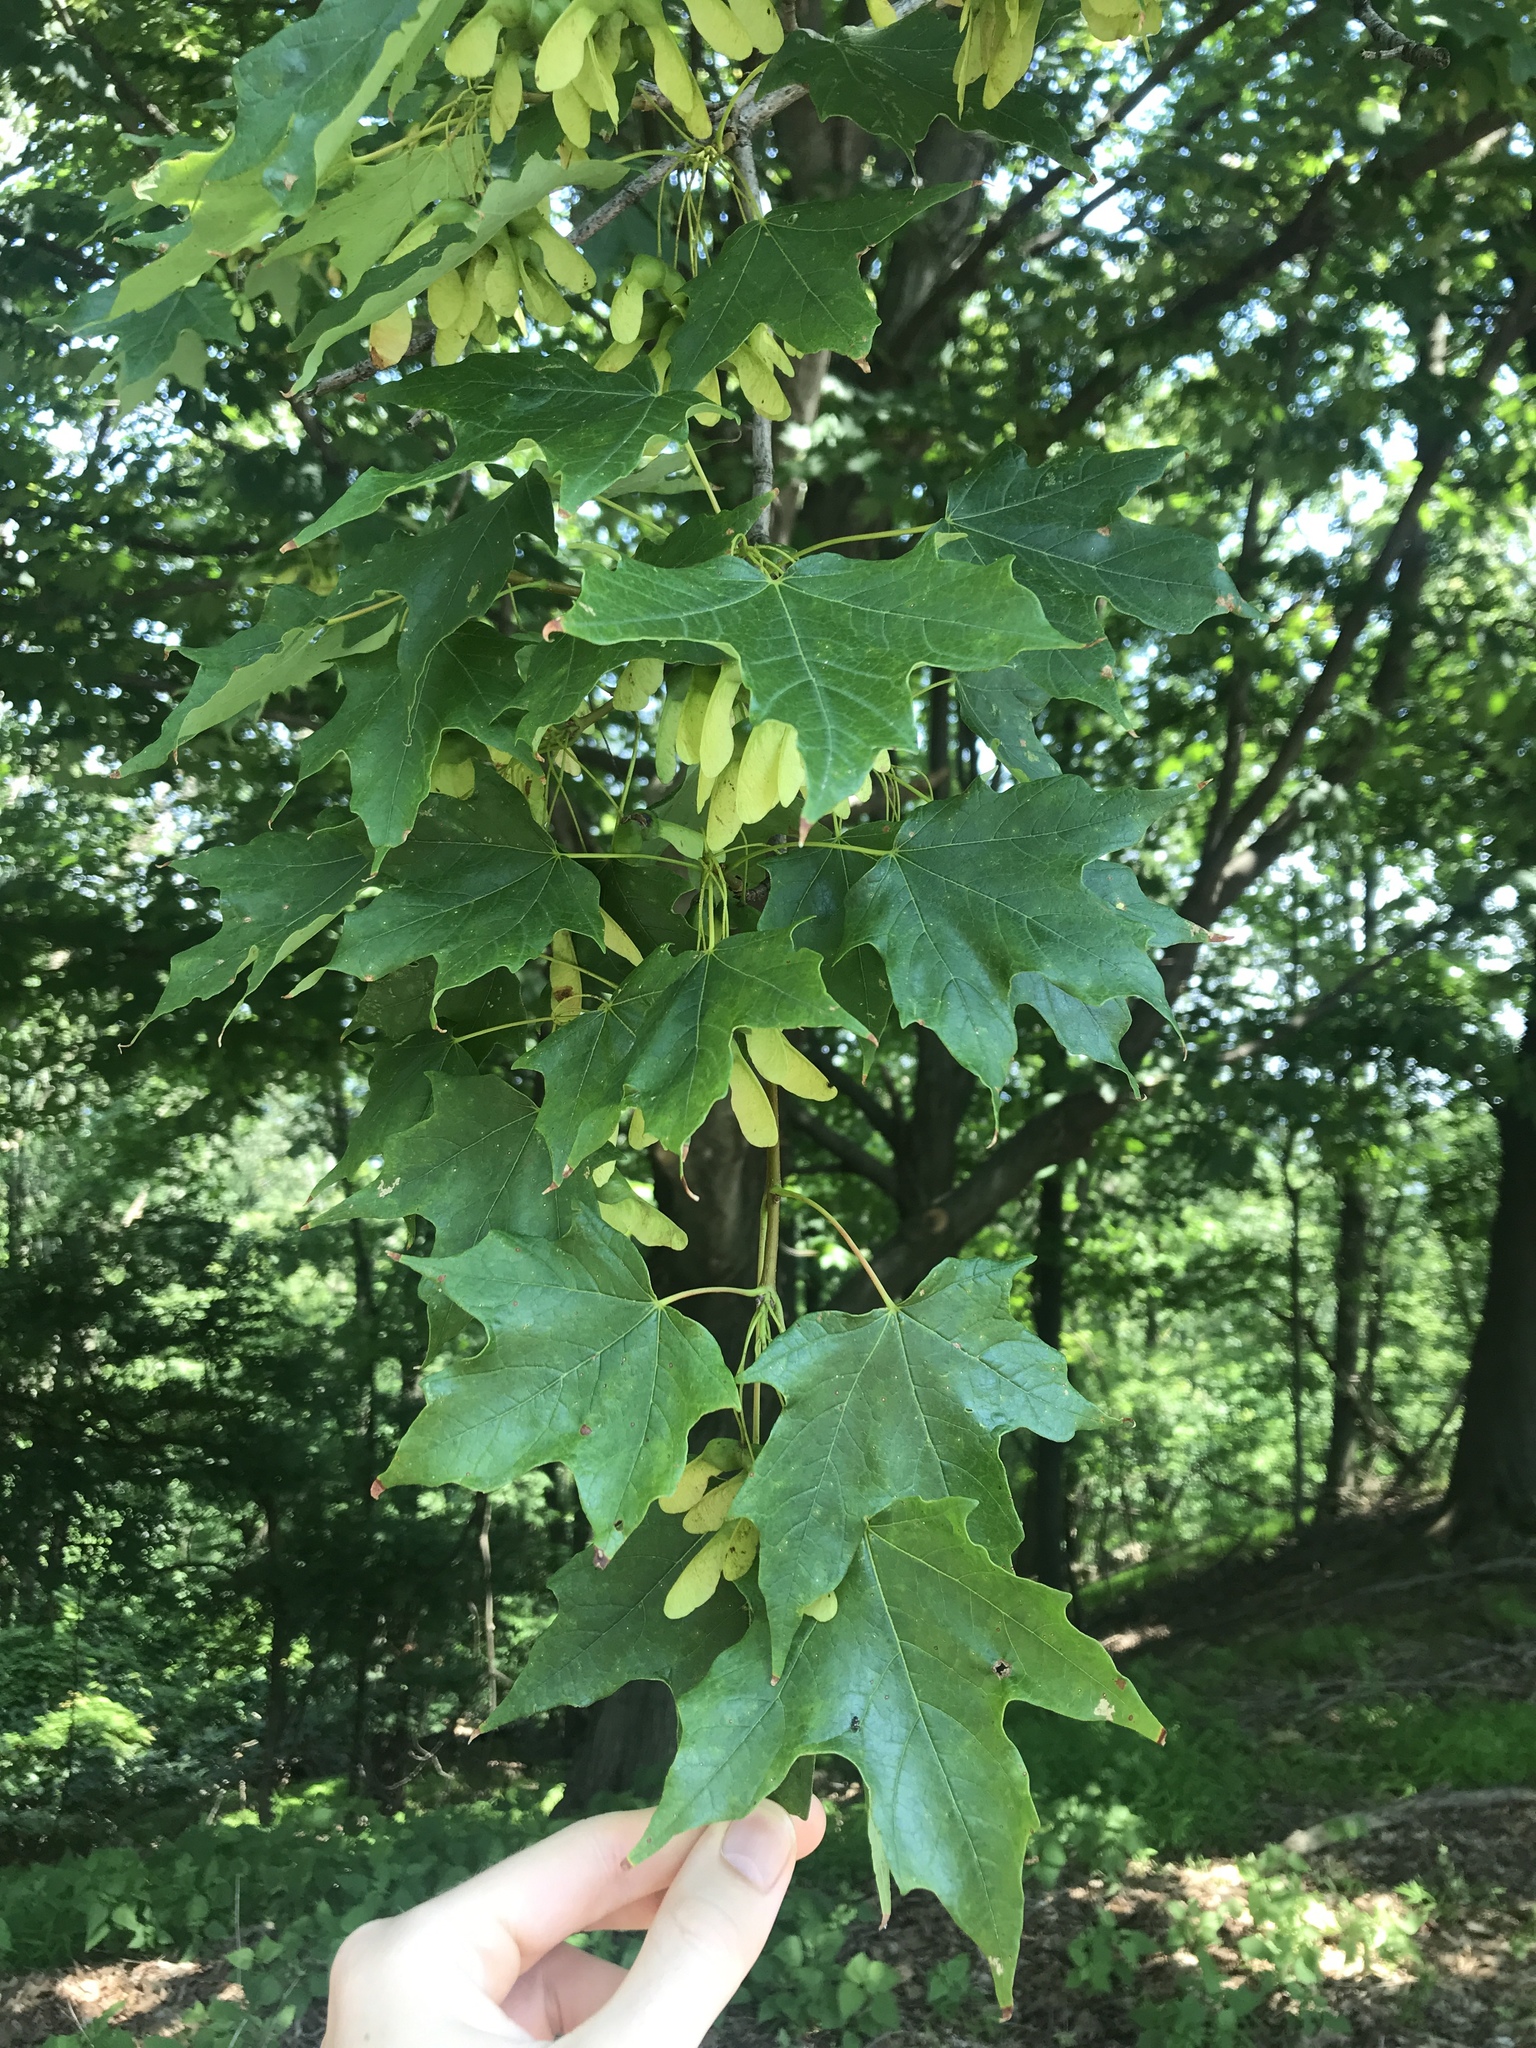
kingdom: Plantae
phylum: Tracheophyta
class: Magnoliopsida
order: Sapindales
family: Sapindaceae
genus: Acer
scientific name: Acer saccharum
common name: Sugar maple
